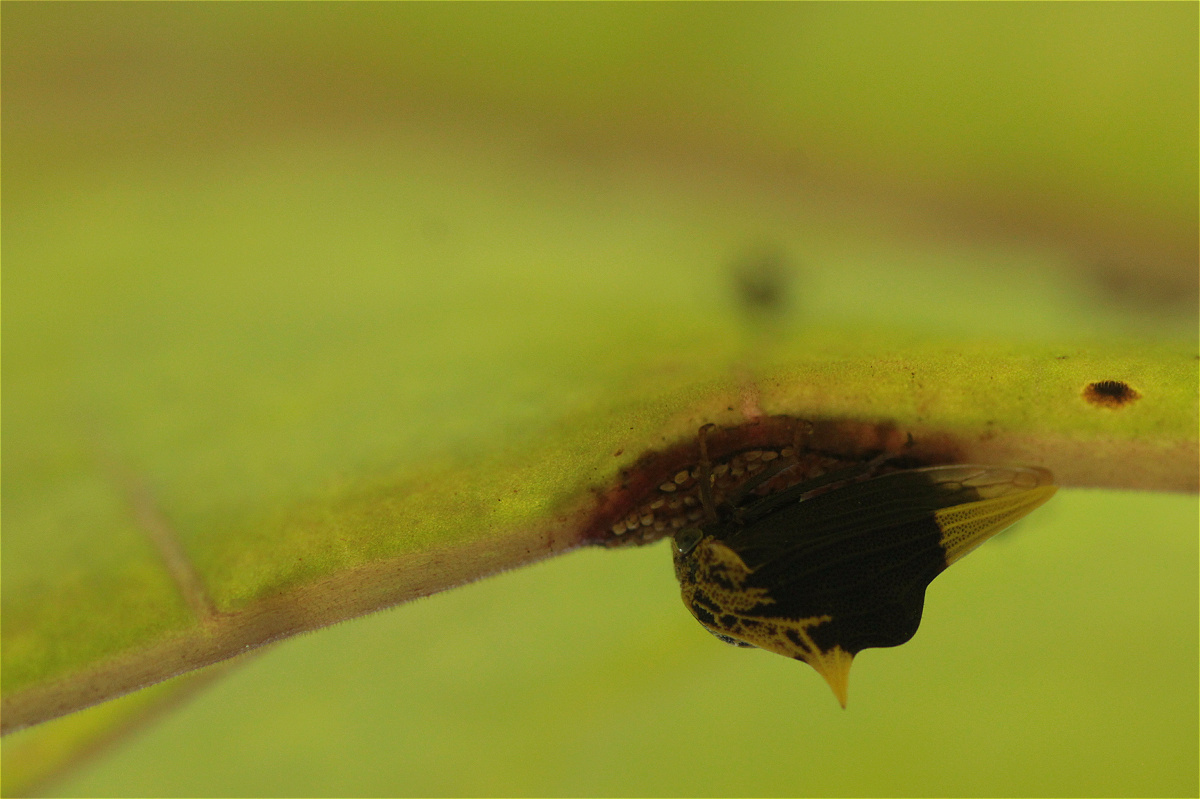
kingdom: Animalia
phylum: Arthropoda
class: Insecta
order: Hemiptera
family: Membracidae
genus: Ennya
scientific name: Ennya chrysura
